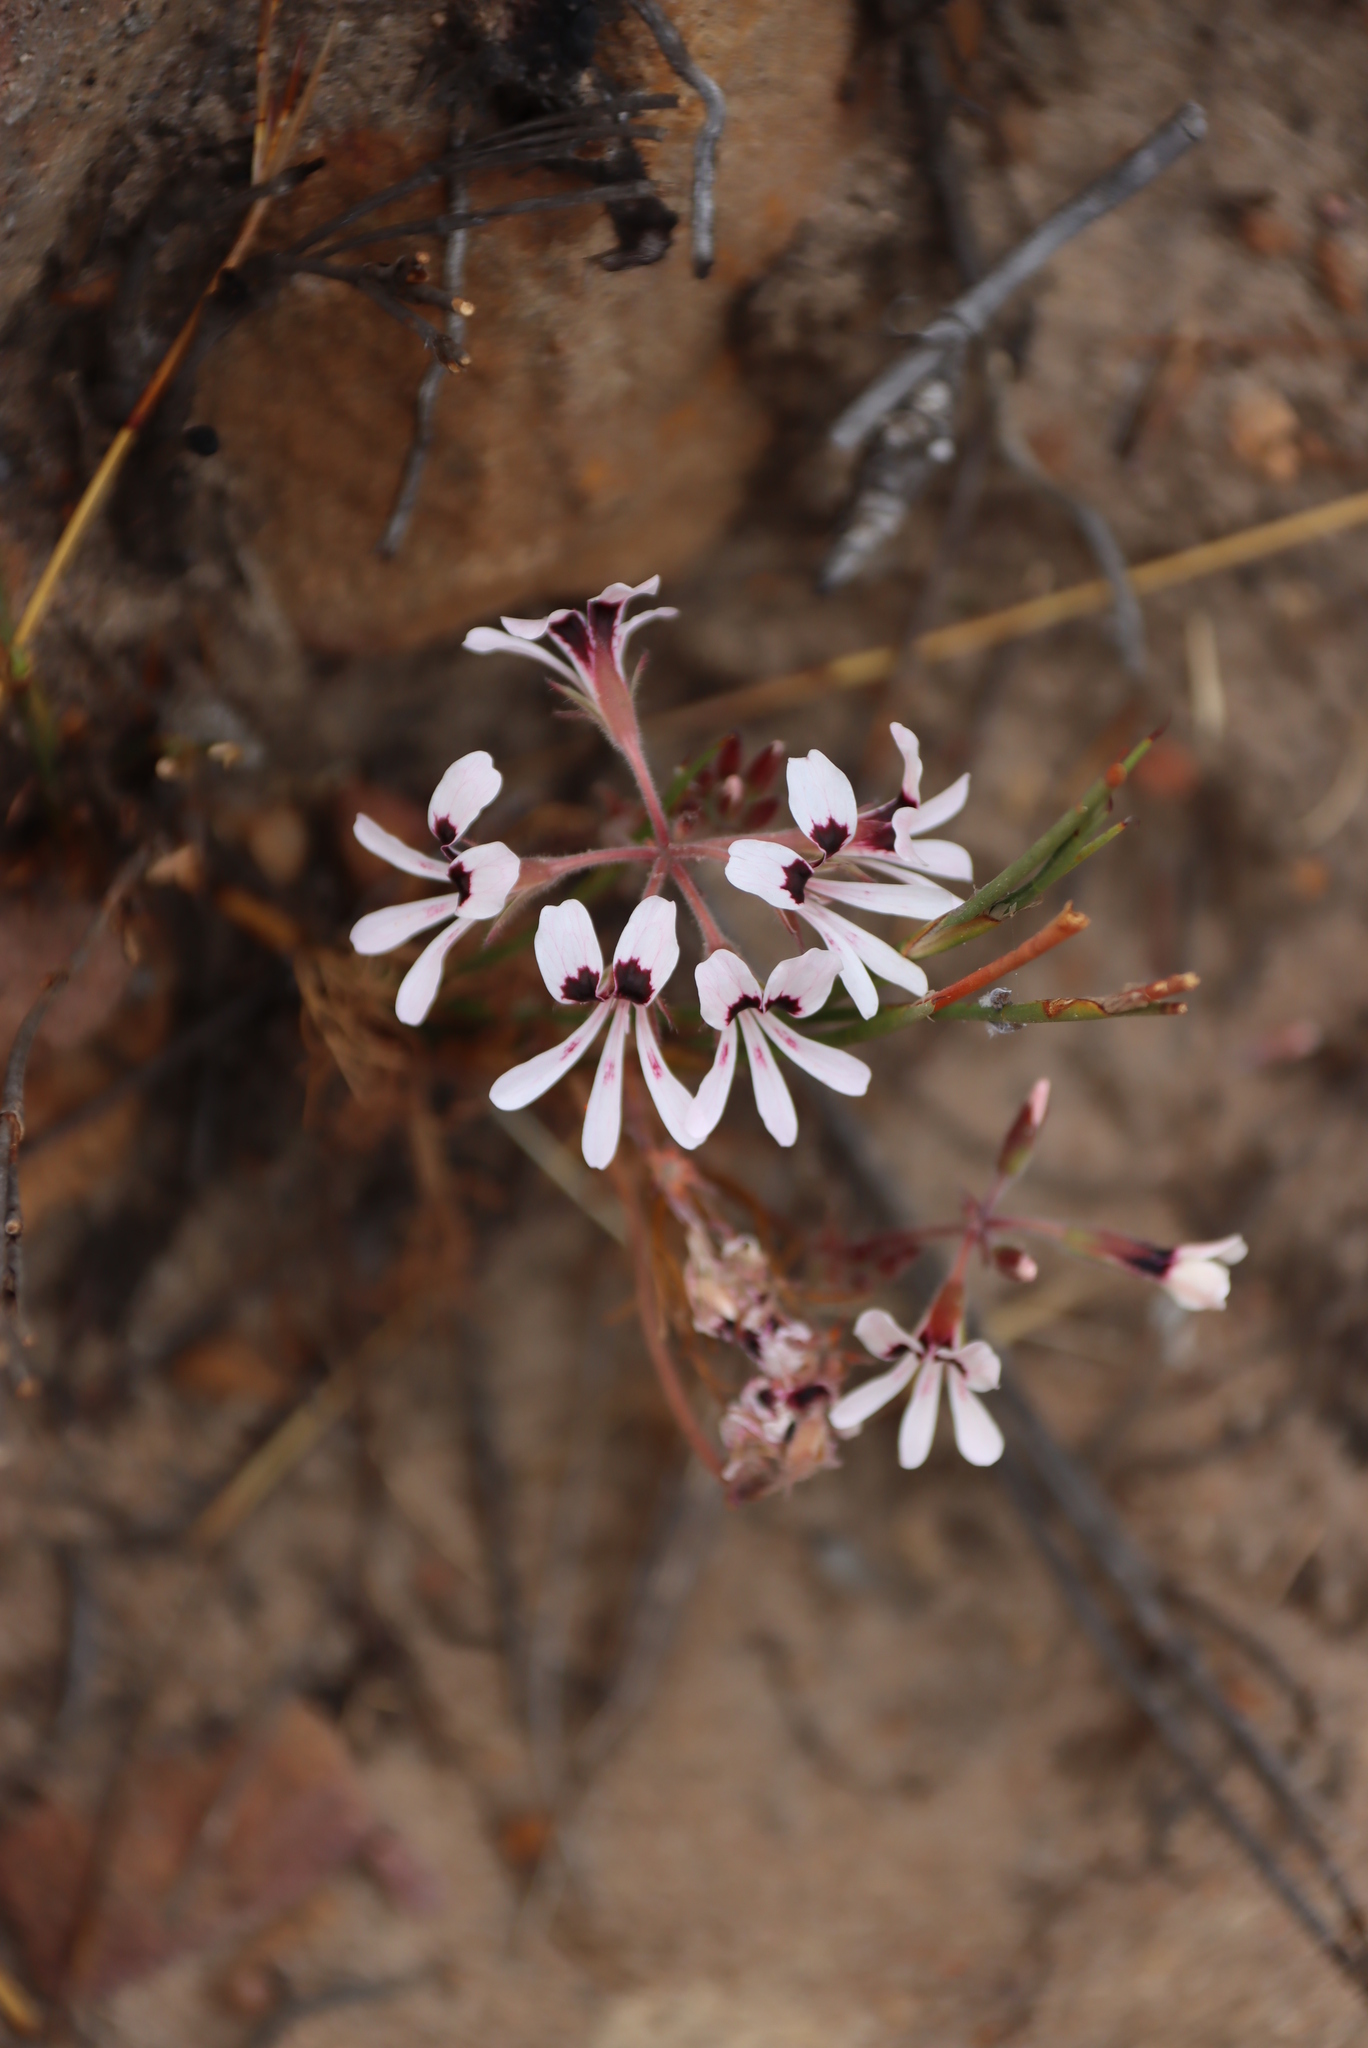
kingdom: Plantae
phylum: Tracheophyta
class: Magnoliopsida
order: Geraniales
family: Geraniaceae
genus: Pelargonium
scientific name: Pelargonium psammophilum
